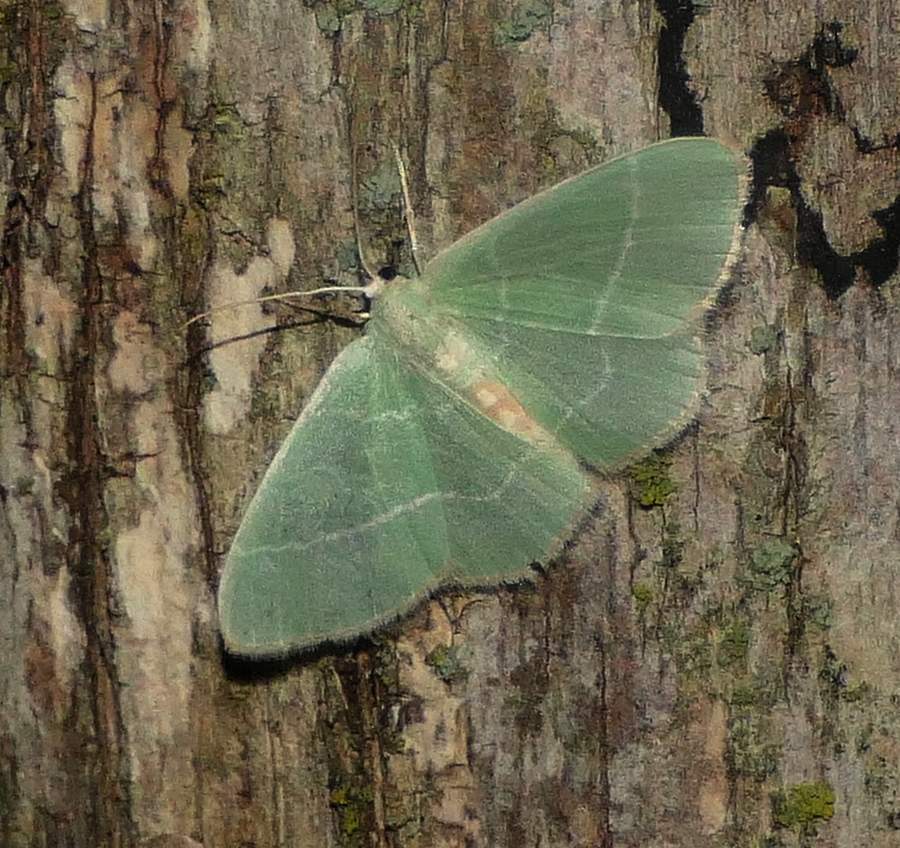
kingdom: Animalia
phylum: Arthropoda
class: Insecta
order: Lepidoptera
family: Geometridae
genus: Nemoria
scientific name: Nemoria mimosaria
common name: White-fringed emerald
